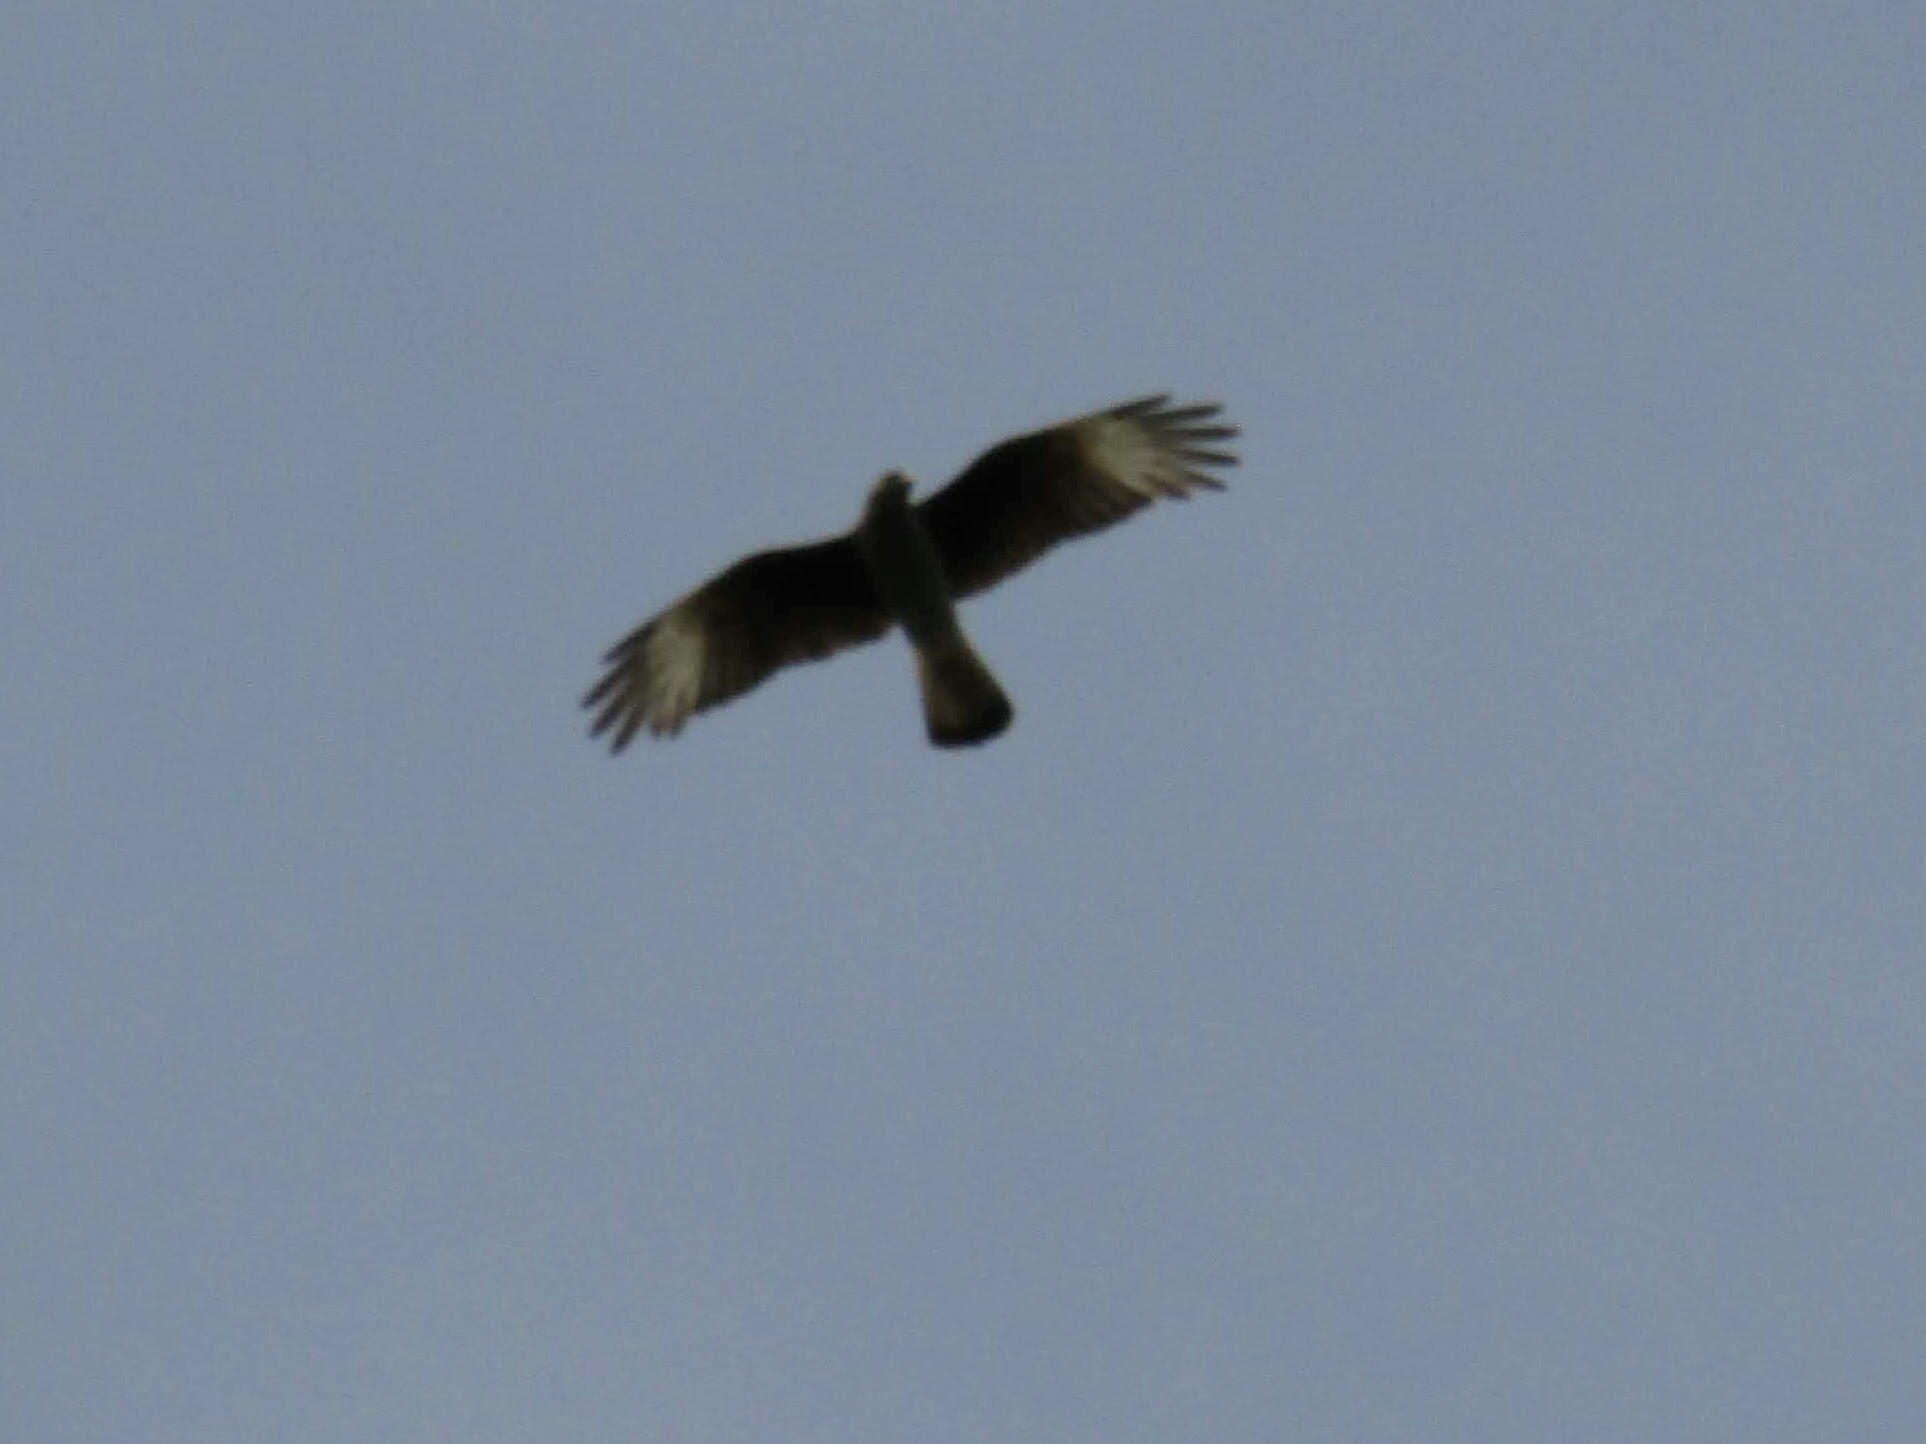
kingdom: Animalia
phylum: Chordata
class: Aves
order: Falconiformes
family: Falconidae
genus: Daptrius
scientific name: Daptrius
